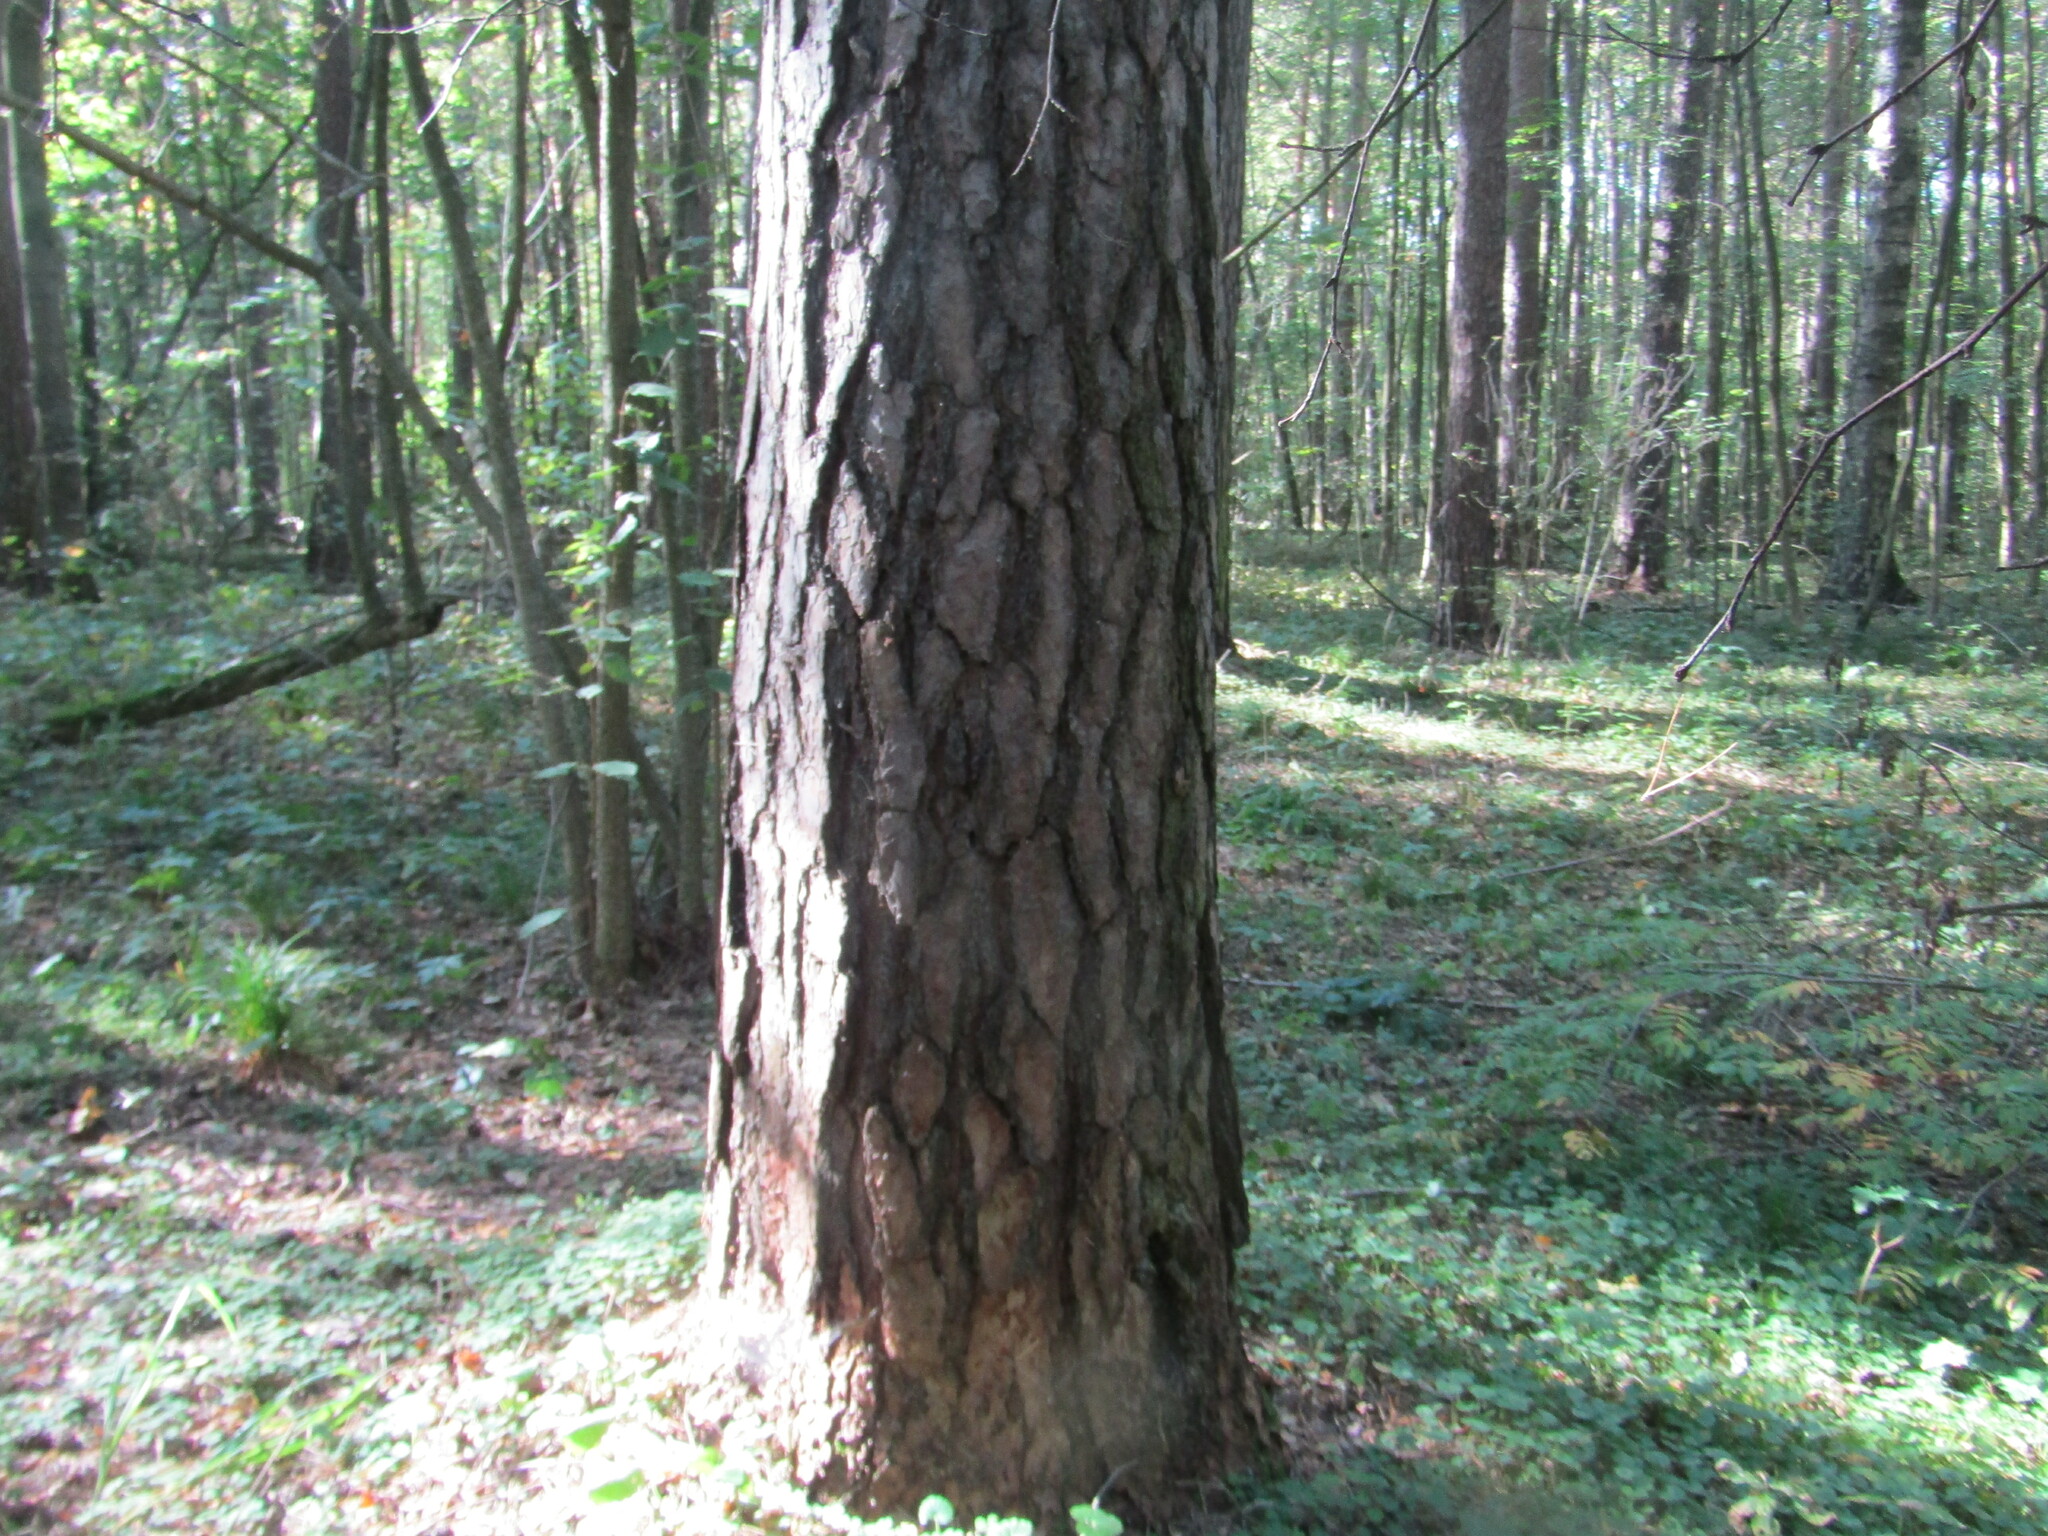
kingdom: Plantae
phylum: Tracheophyta
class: Pinopsida
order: Pinales
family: Pinaceae
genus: Pinus
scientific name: Pinus sylvestris
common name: Scots pine
